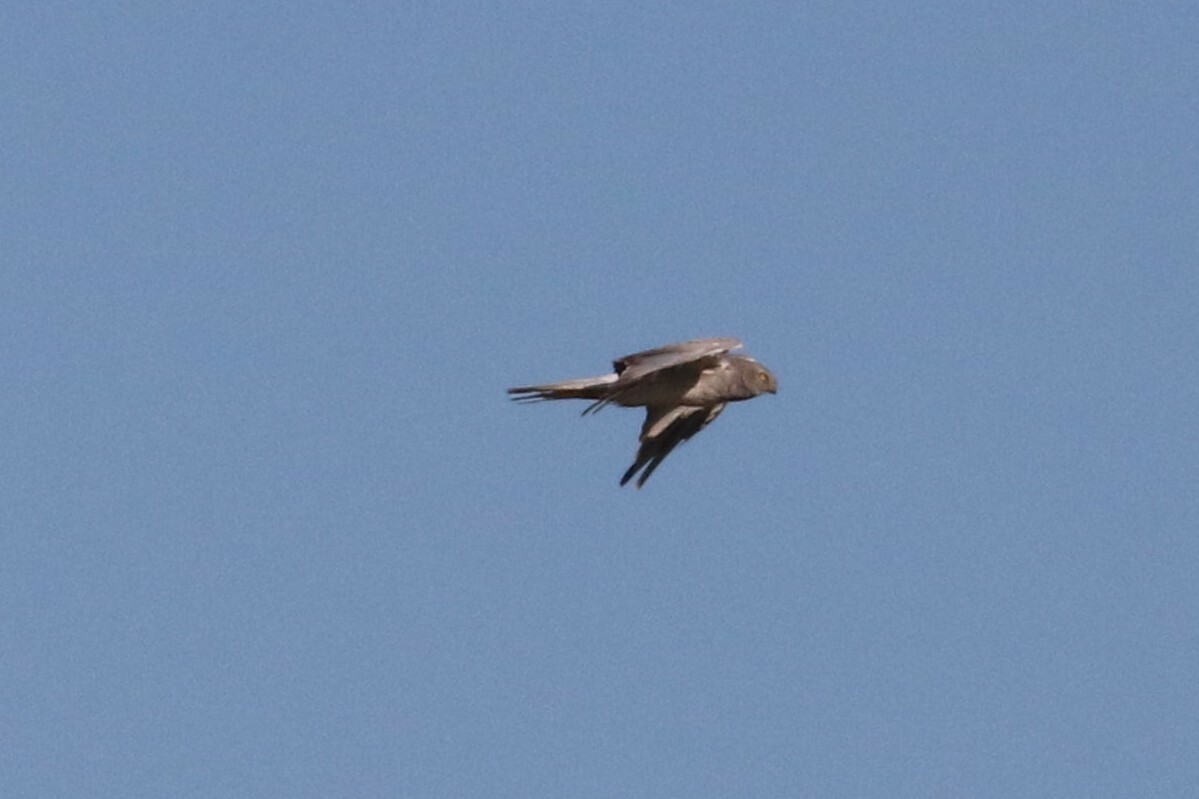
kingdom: Animalia
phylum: Chordata
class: Aves
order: Accipitriformes
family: Accipitridae
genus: Circus
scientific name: Circus cyaneus
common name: Hen harrier
